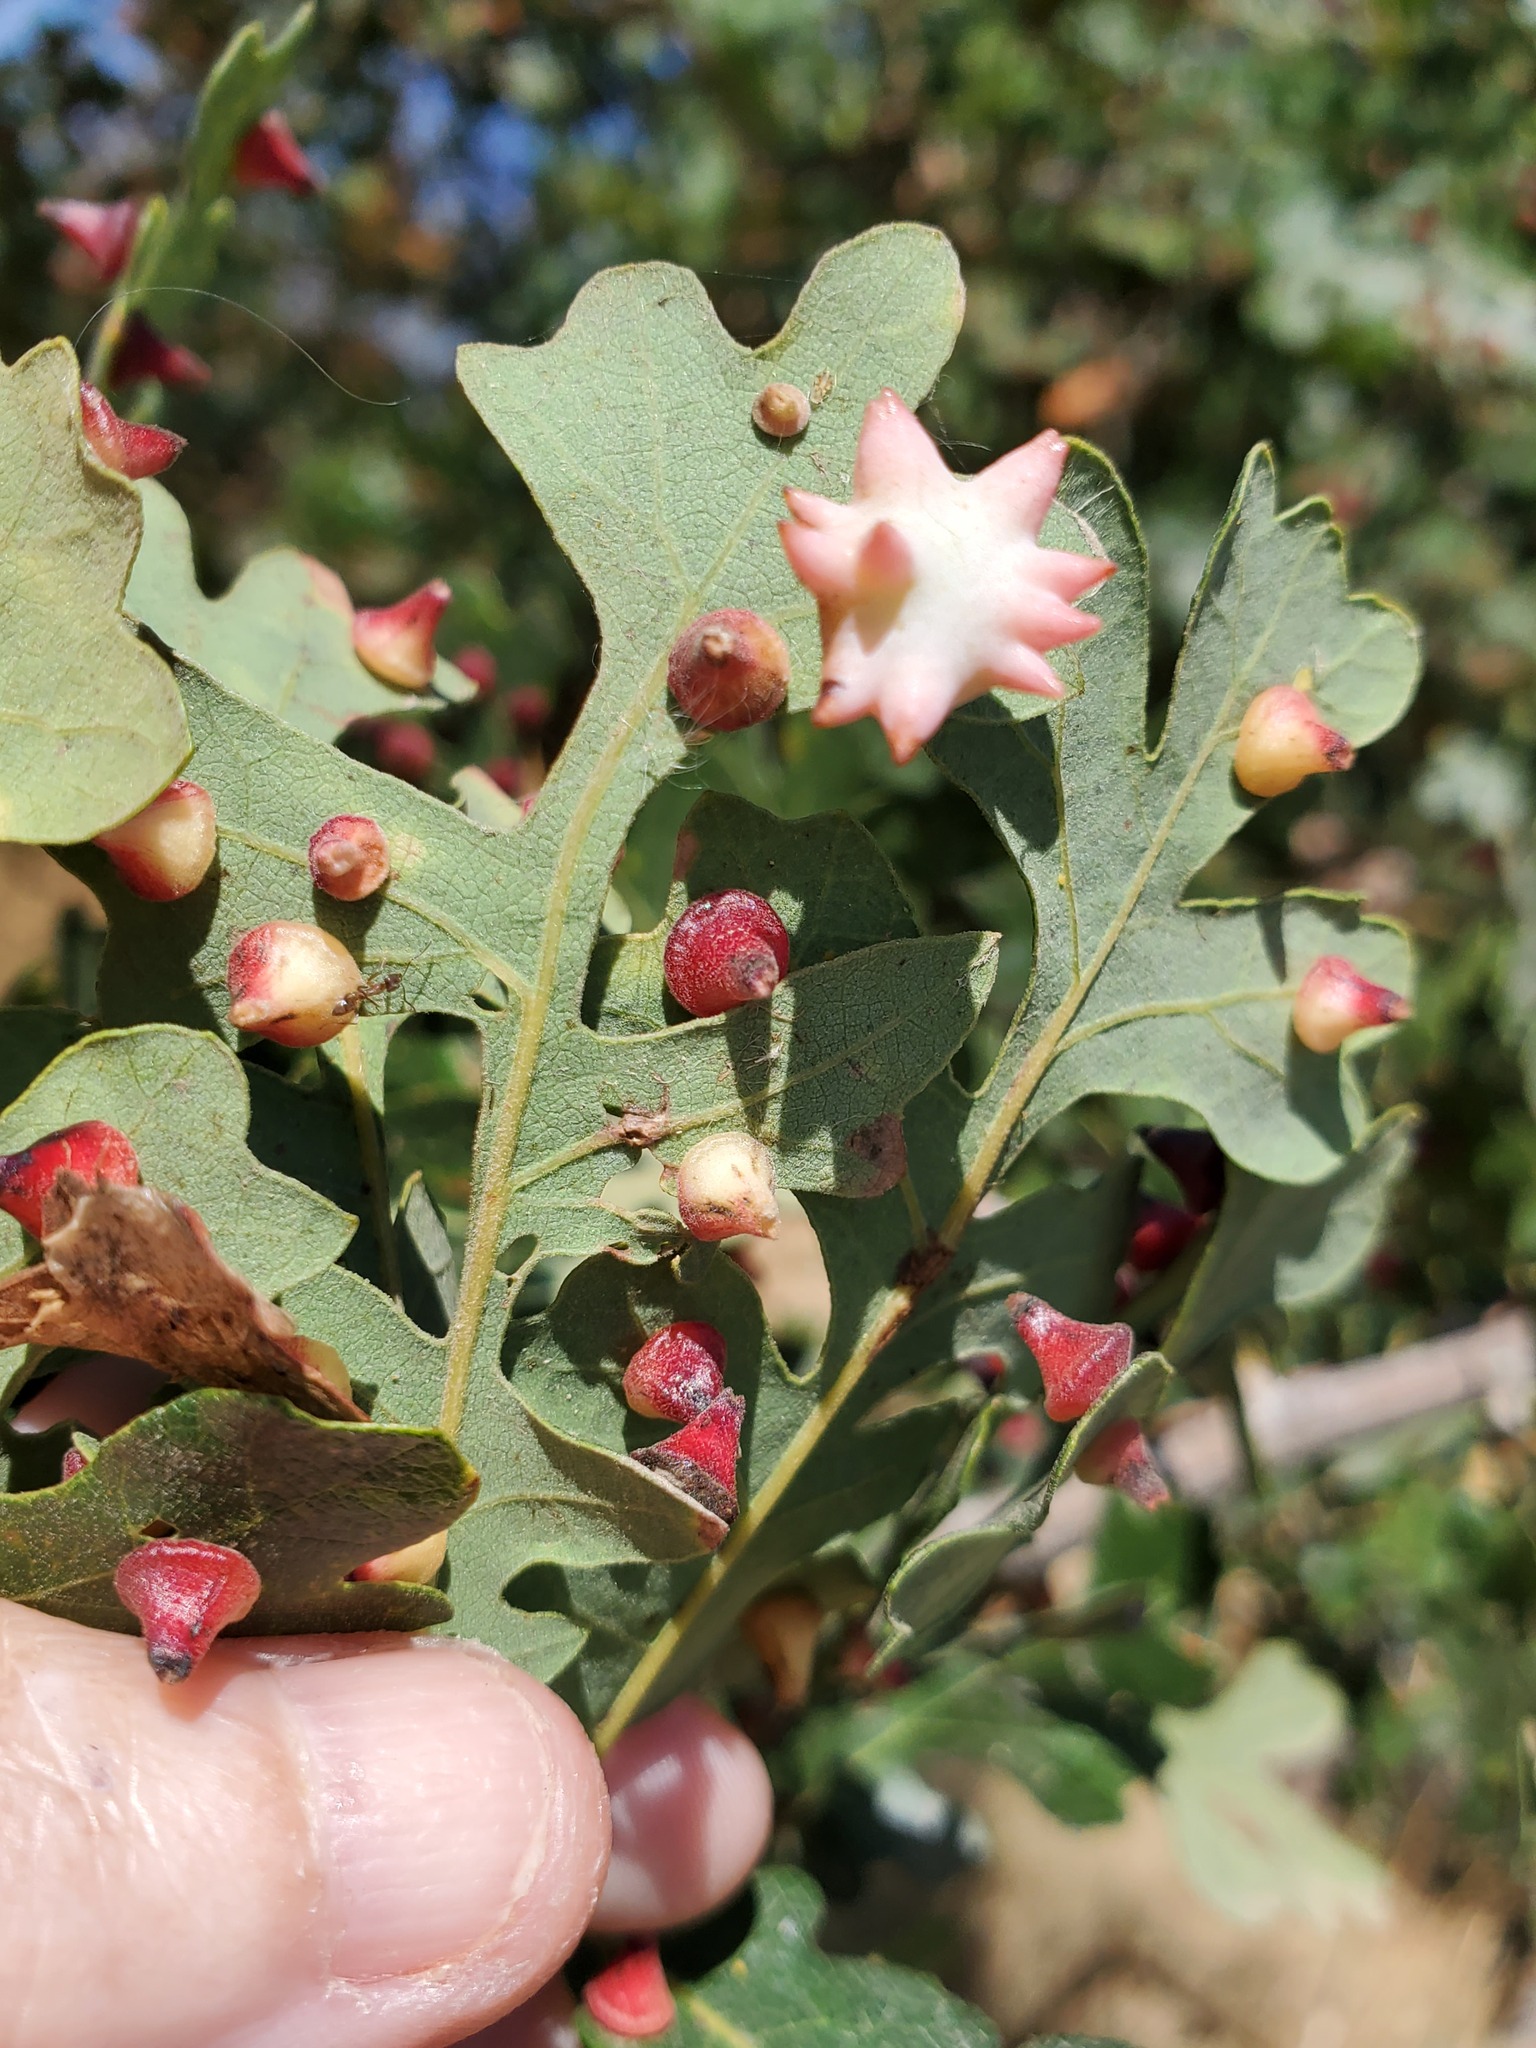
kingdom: Animalia
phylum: Arthropoda
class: Insecta
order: Hymenoptera
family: Cynipidae
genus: Cynips
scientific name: Cynips douglasi
